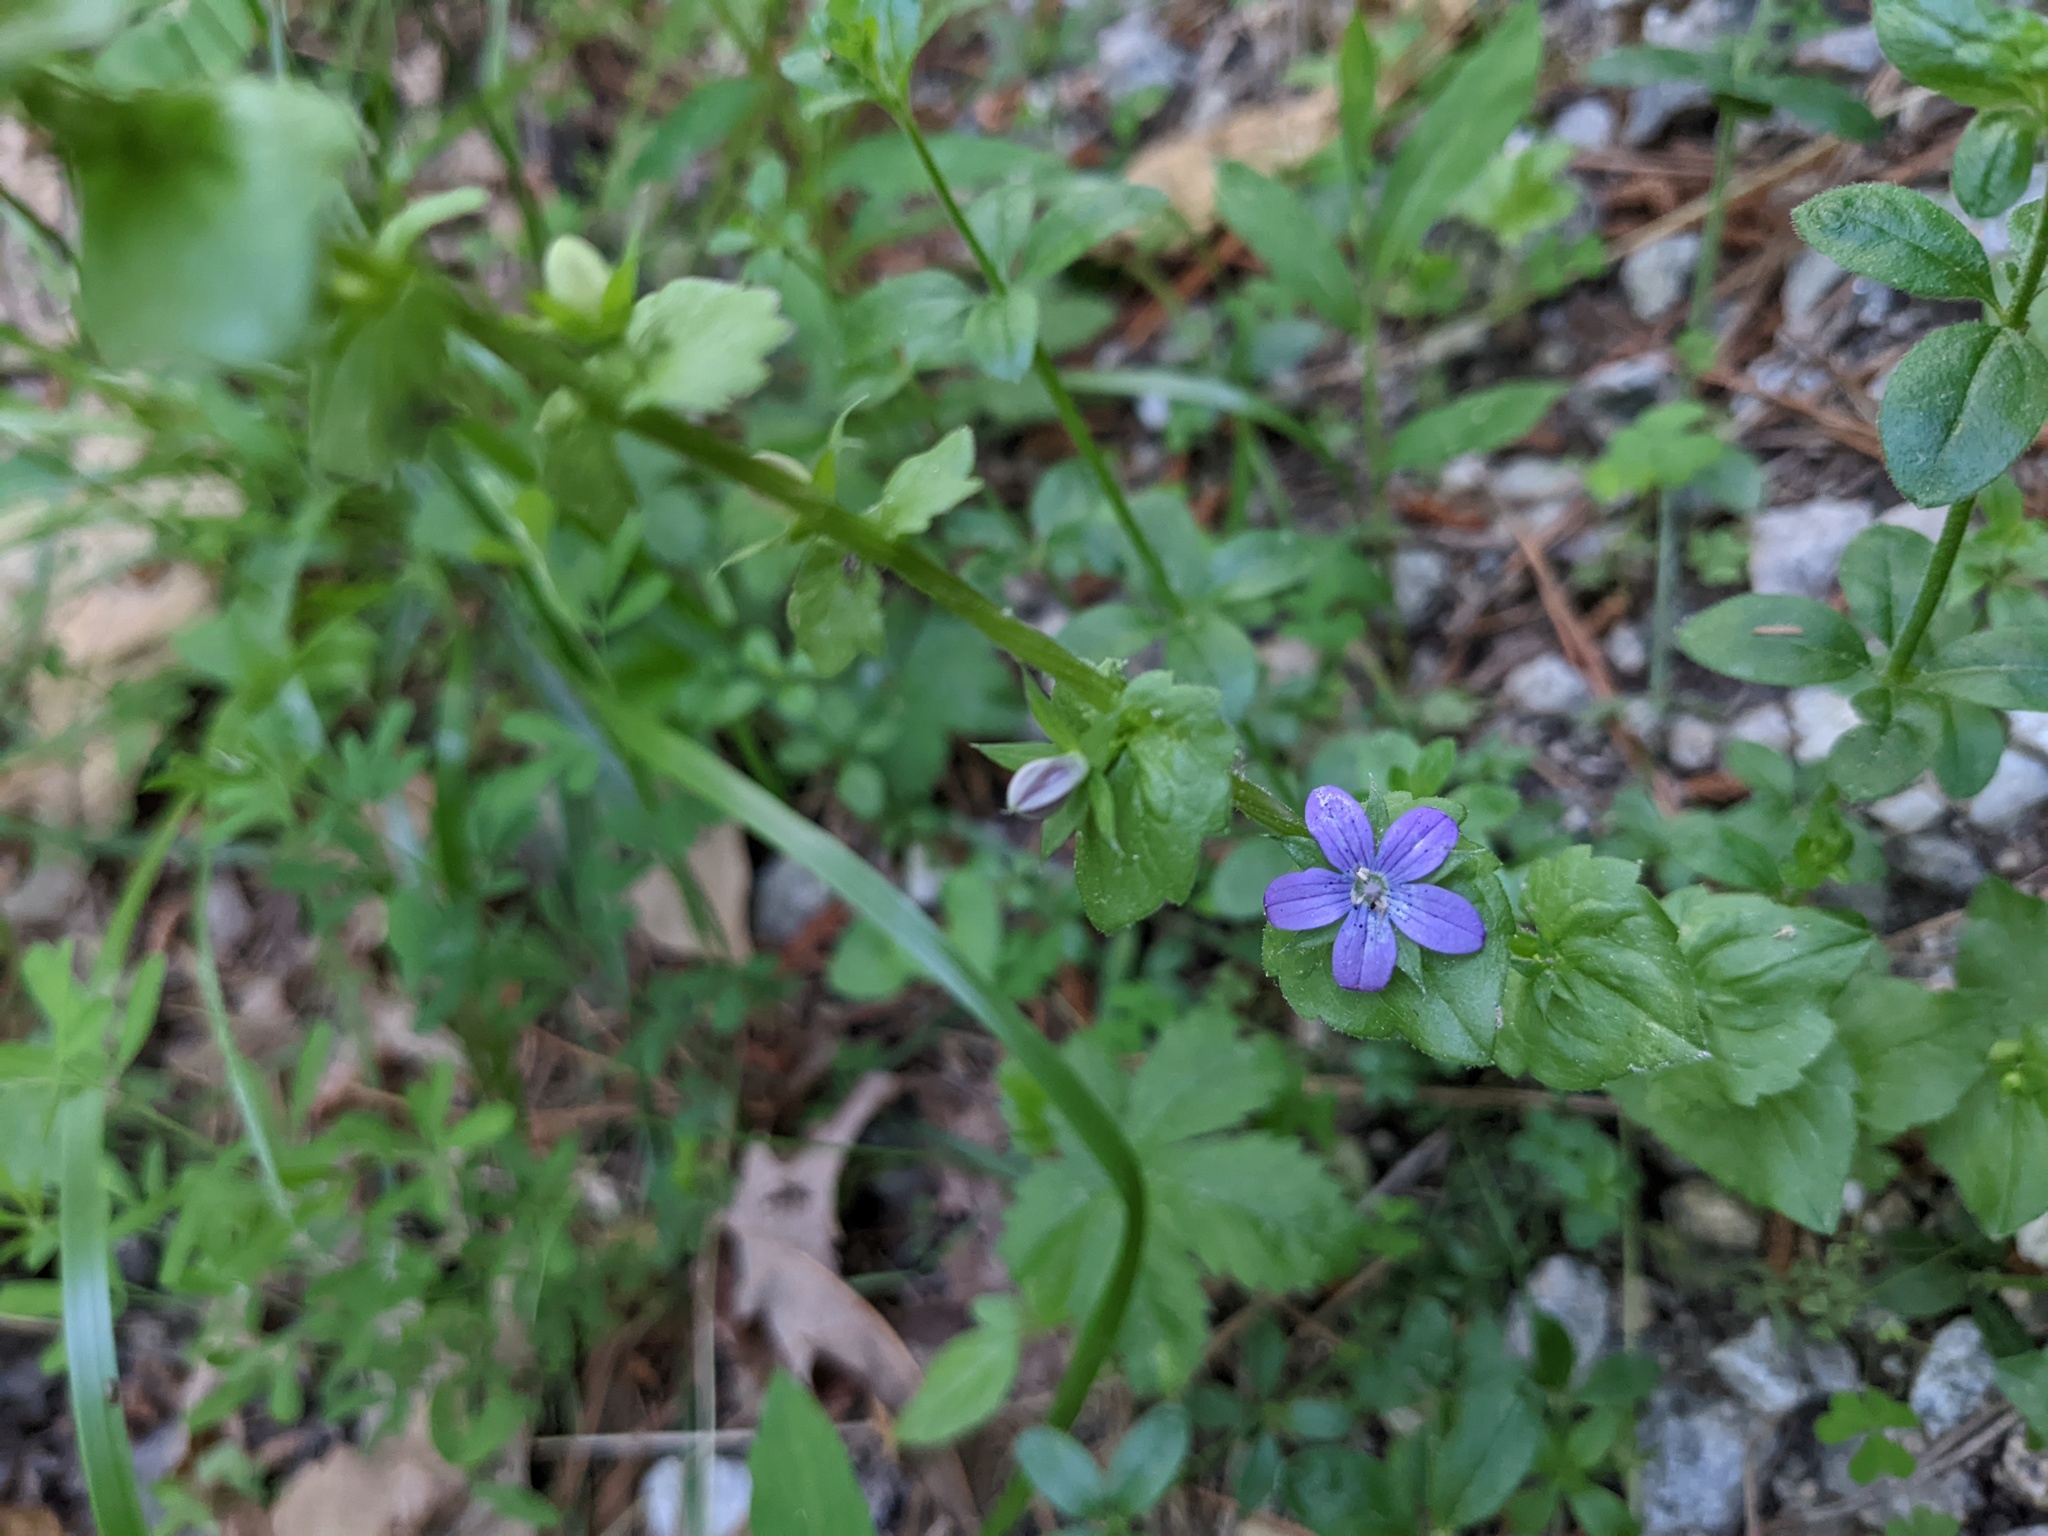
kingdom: Plantae
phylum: Tracheophyta
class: Magnoliopsida
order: Asterales
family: Campanulaceae
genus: Triodanis
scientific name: Triodanis perfoliata
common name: Clasping venus' looking-glass
